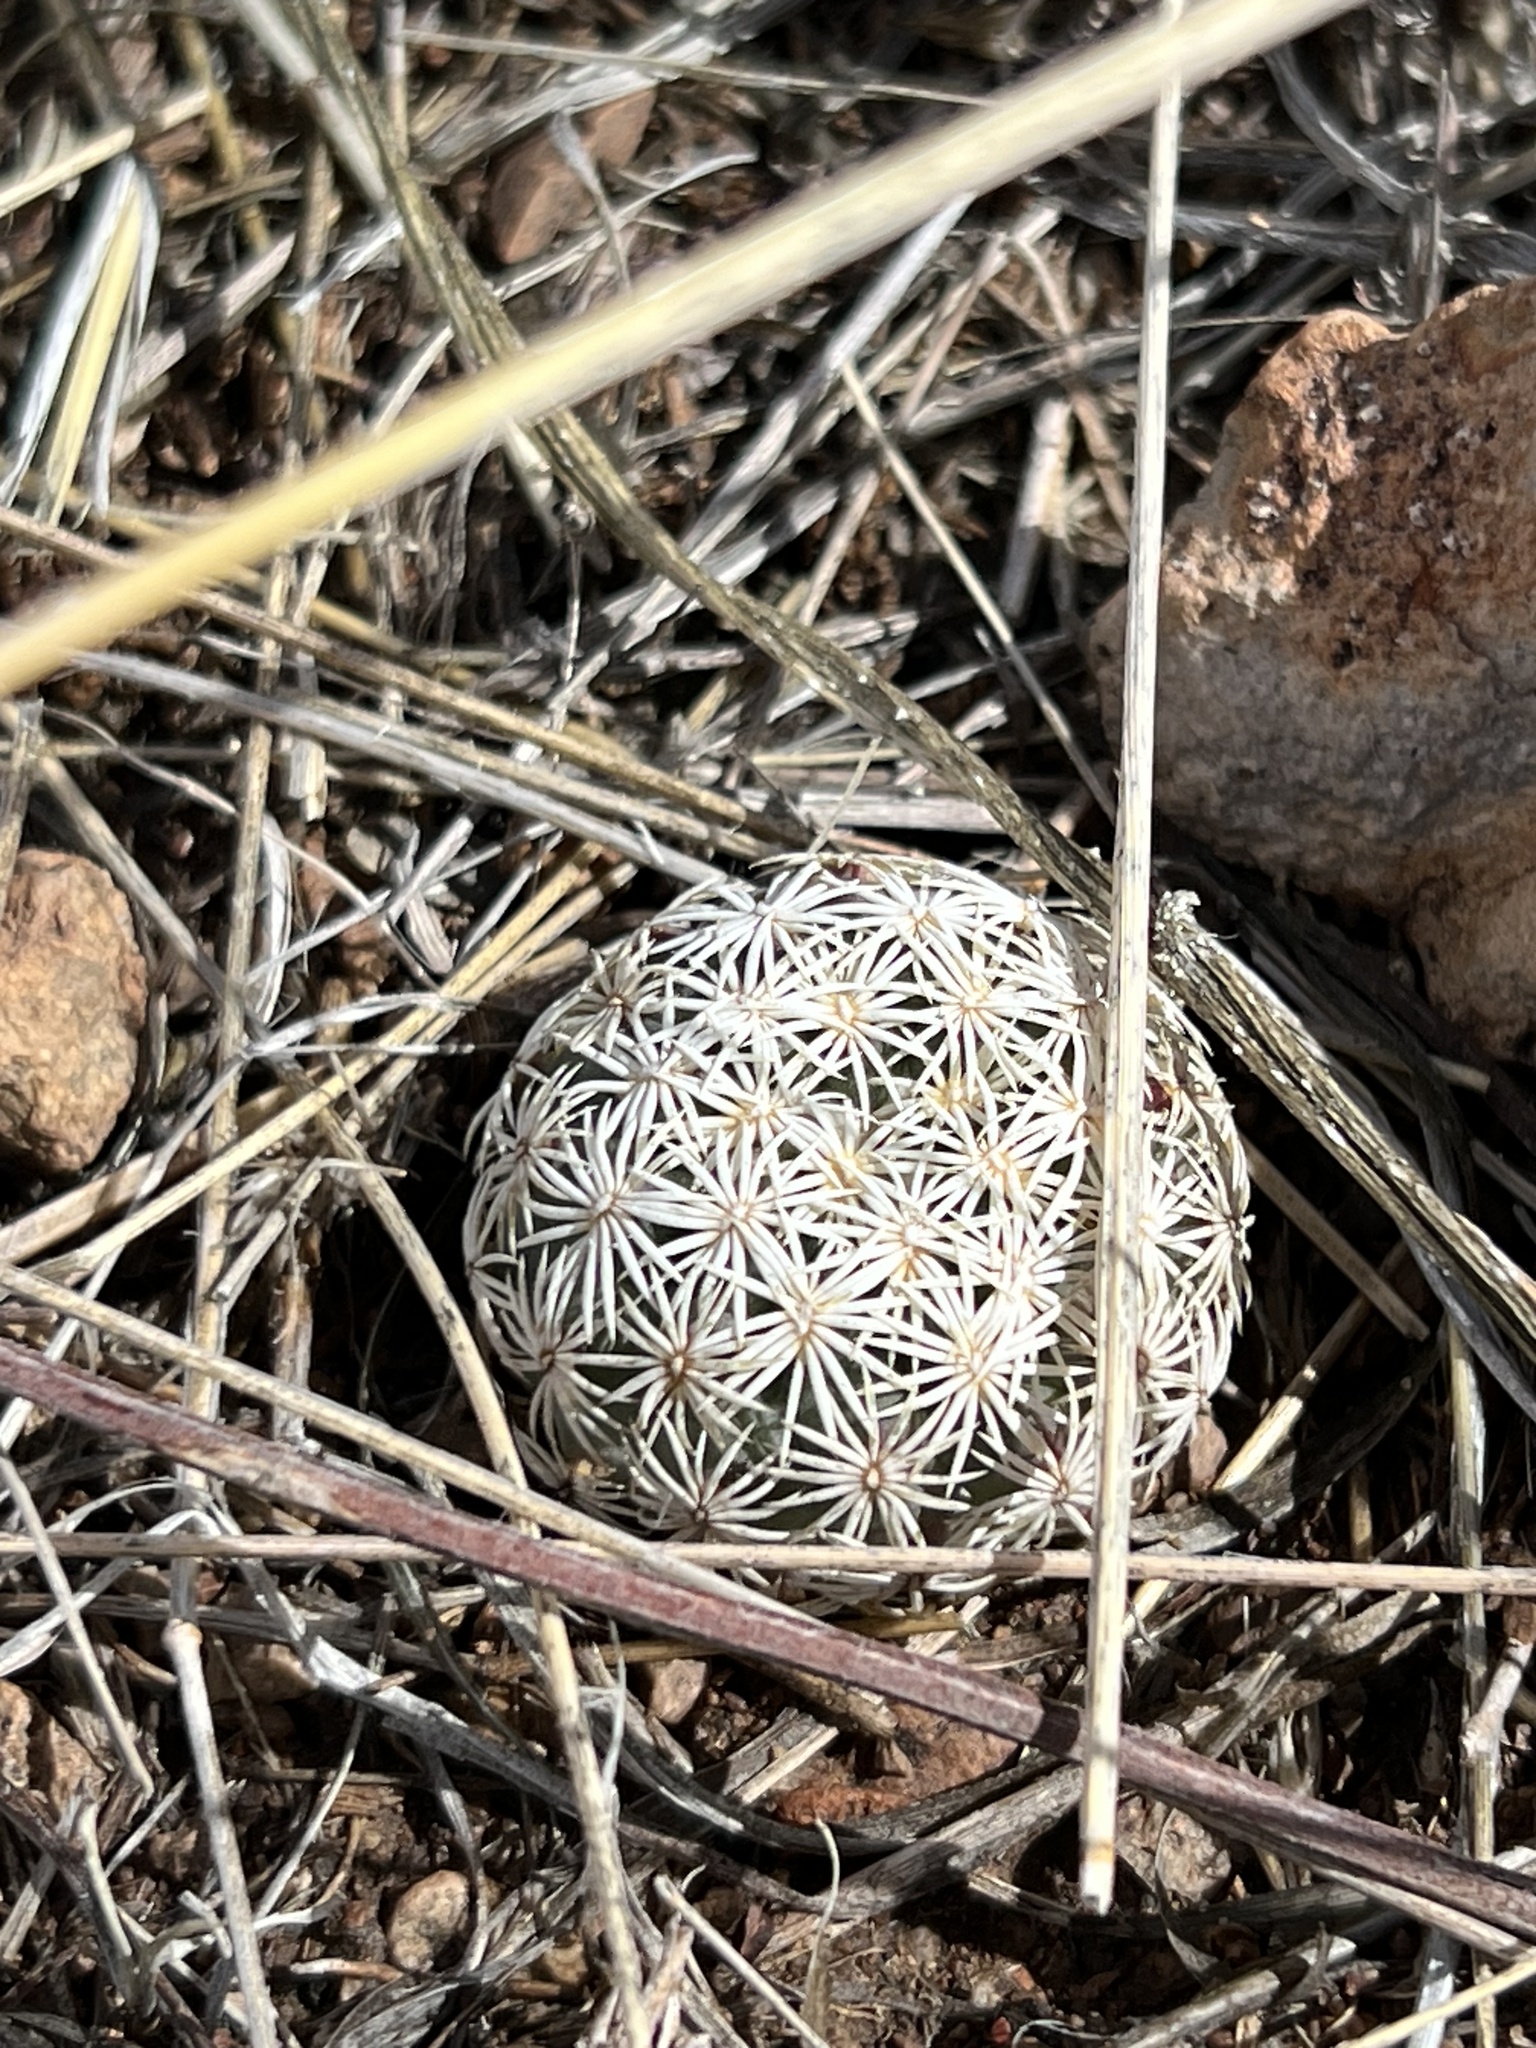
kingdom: Plantae
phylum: Tracheophyta
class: Magnoliopsida
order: Caryophyllales
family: Cactaceae
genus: Sclerocactus
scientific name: Sclerocactus johnsonii
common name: Eight-spine fishhook cactus
